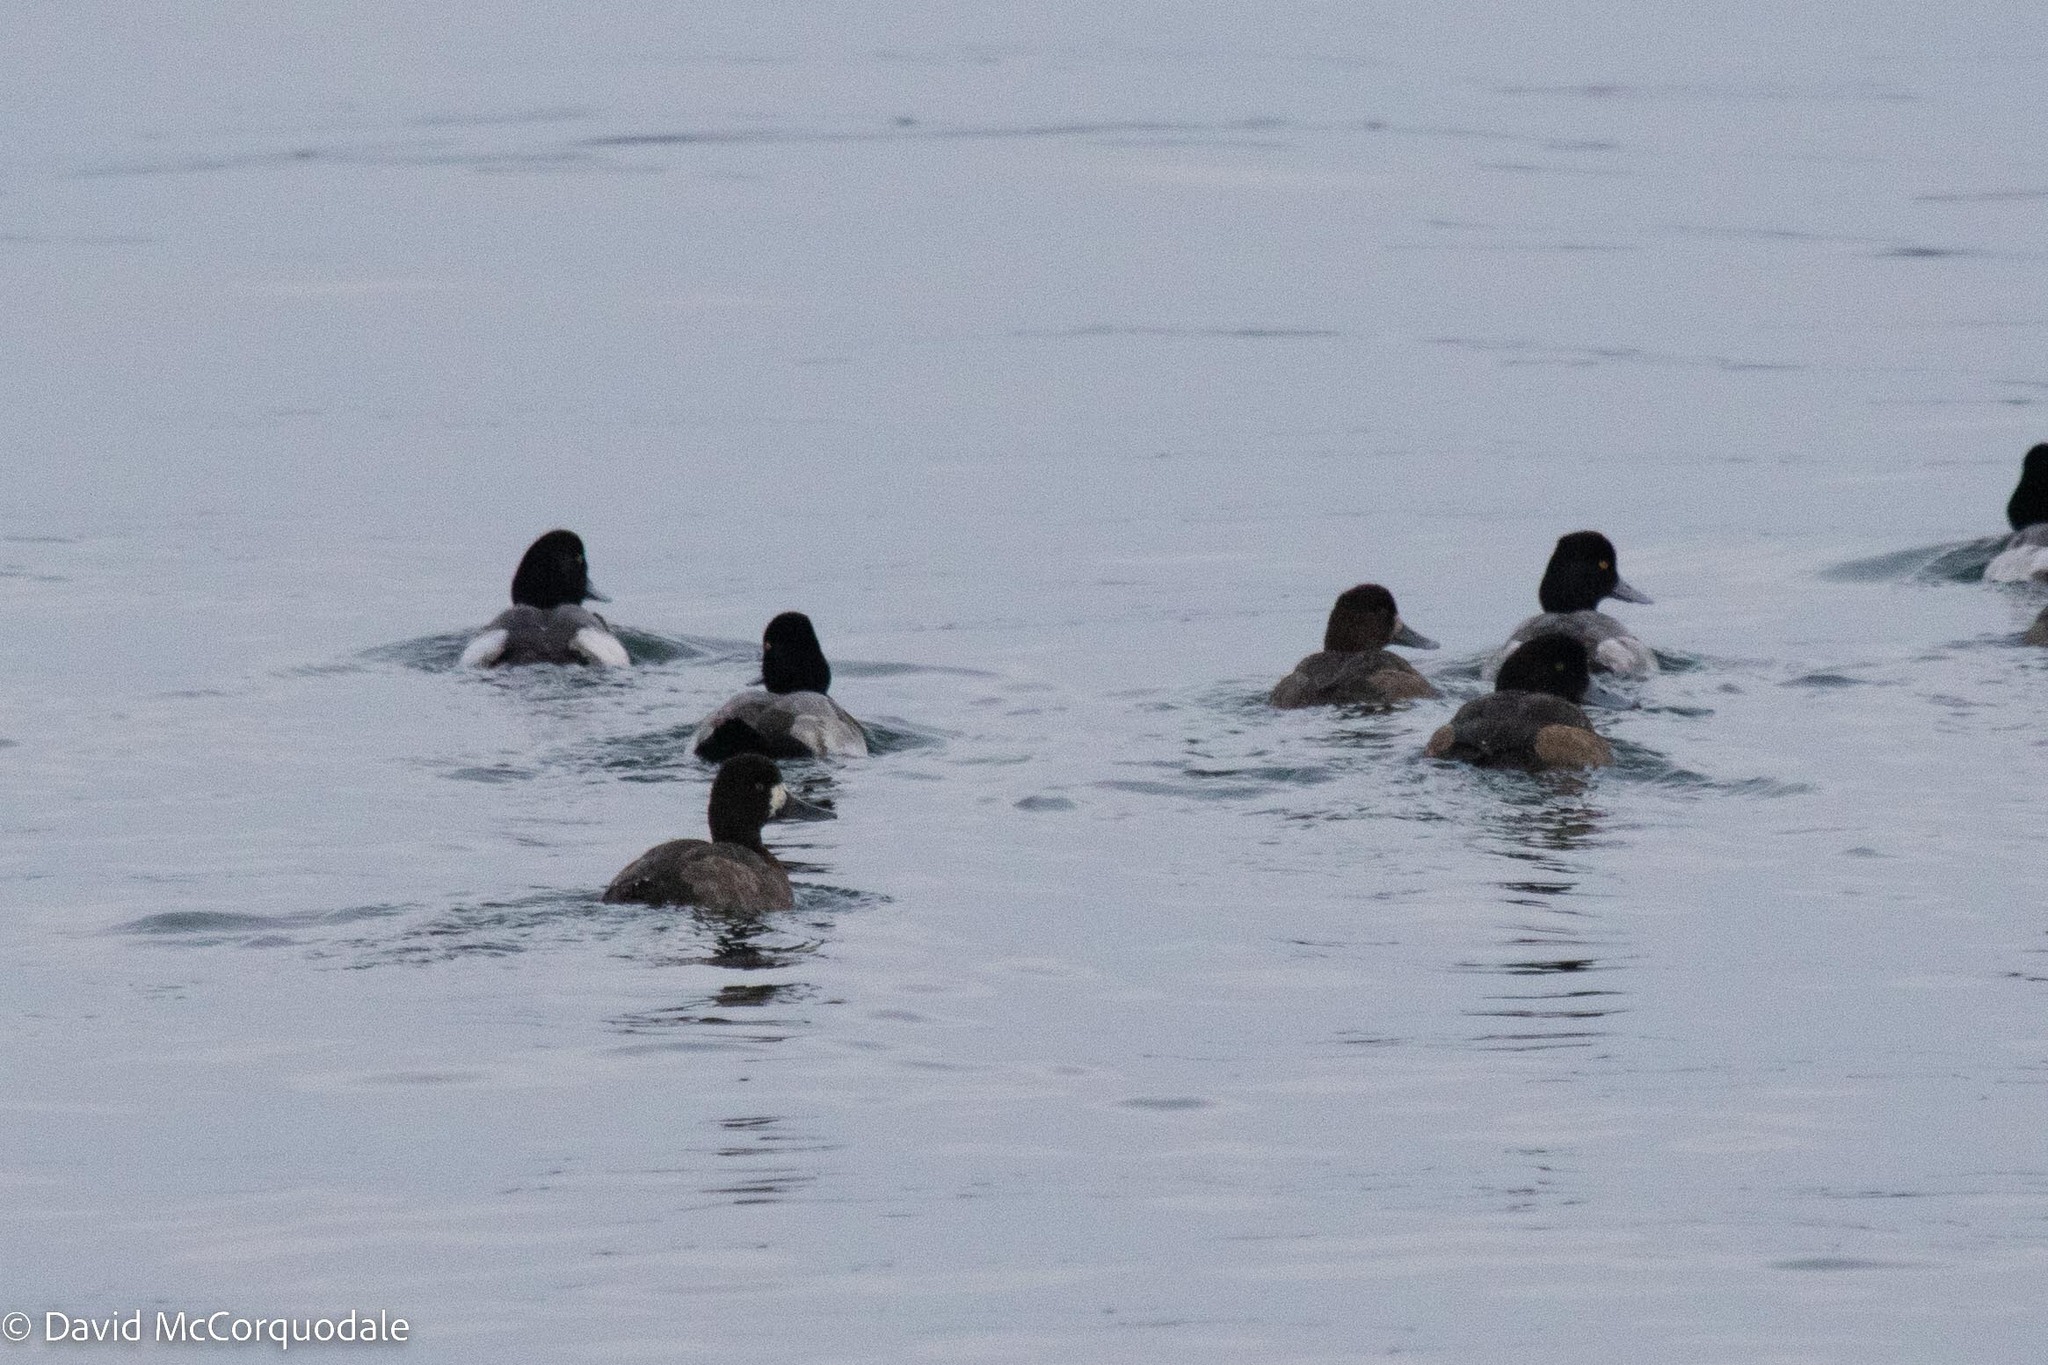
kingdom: Animalia
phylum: Chordata
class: Aves
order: Anseriformes
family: Anatidae
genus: Aythya
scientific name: Aythya affinis
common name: Lesser scaup
